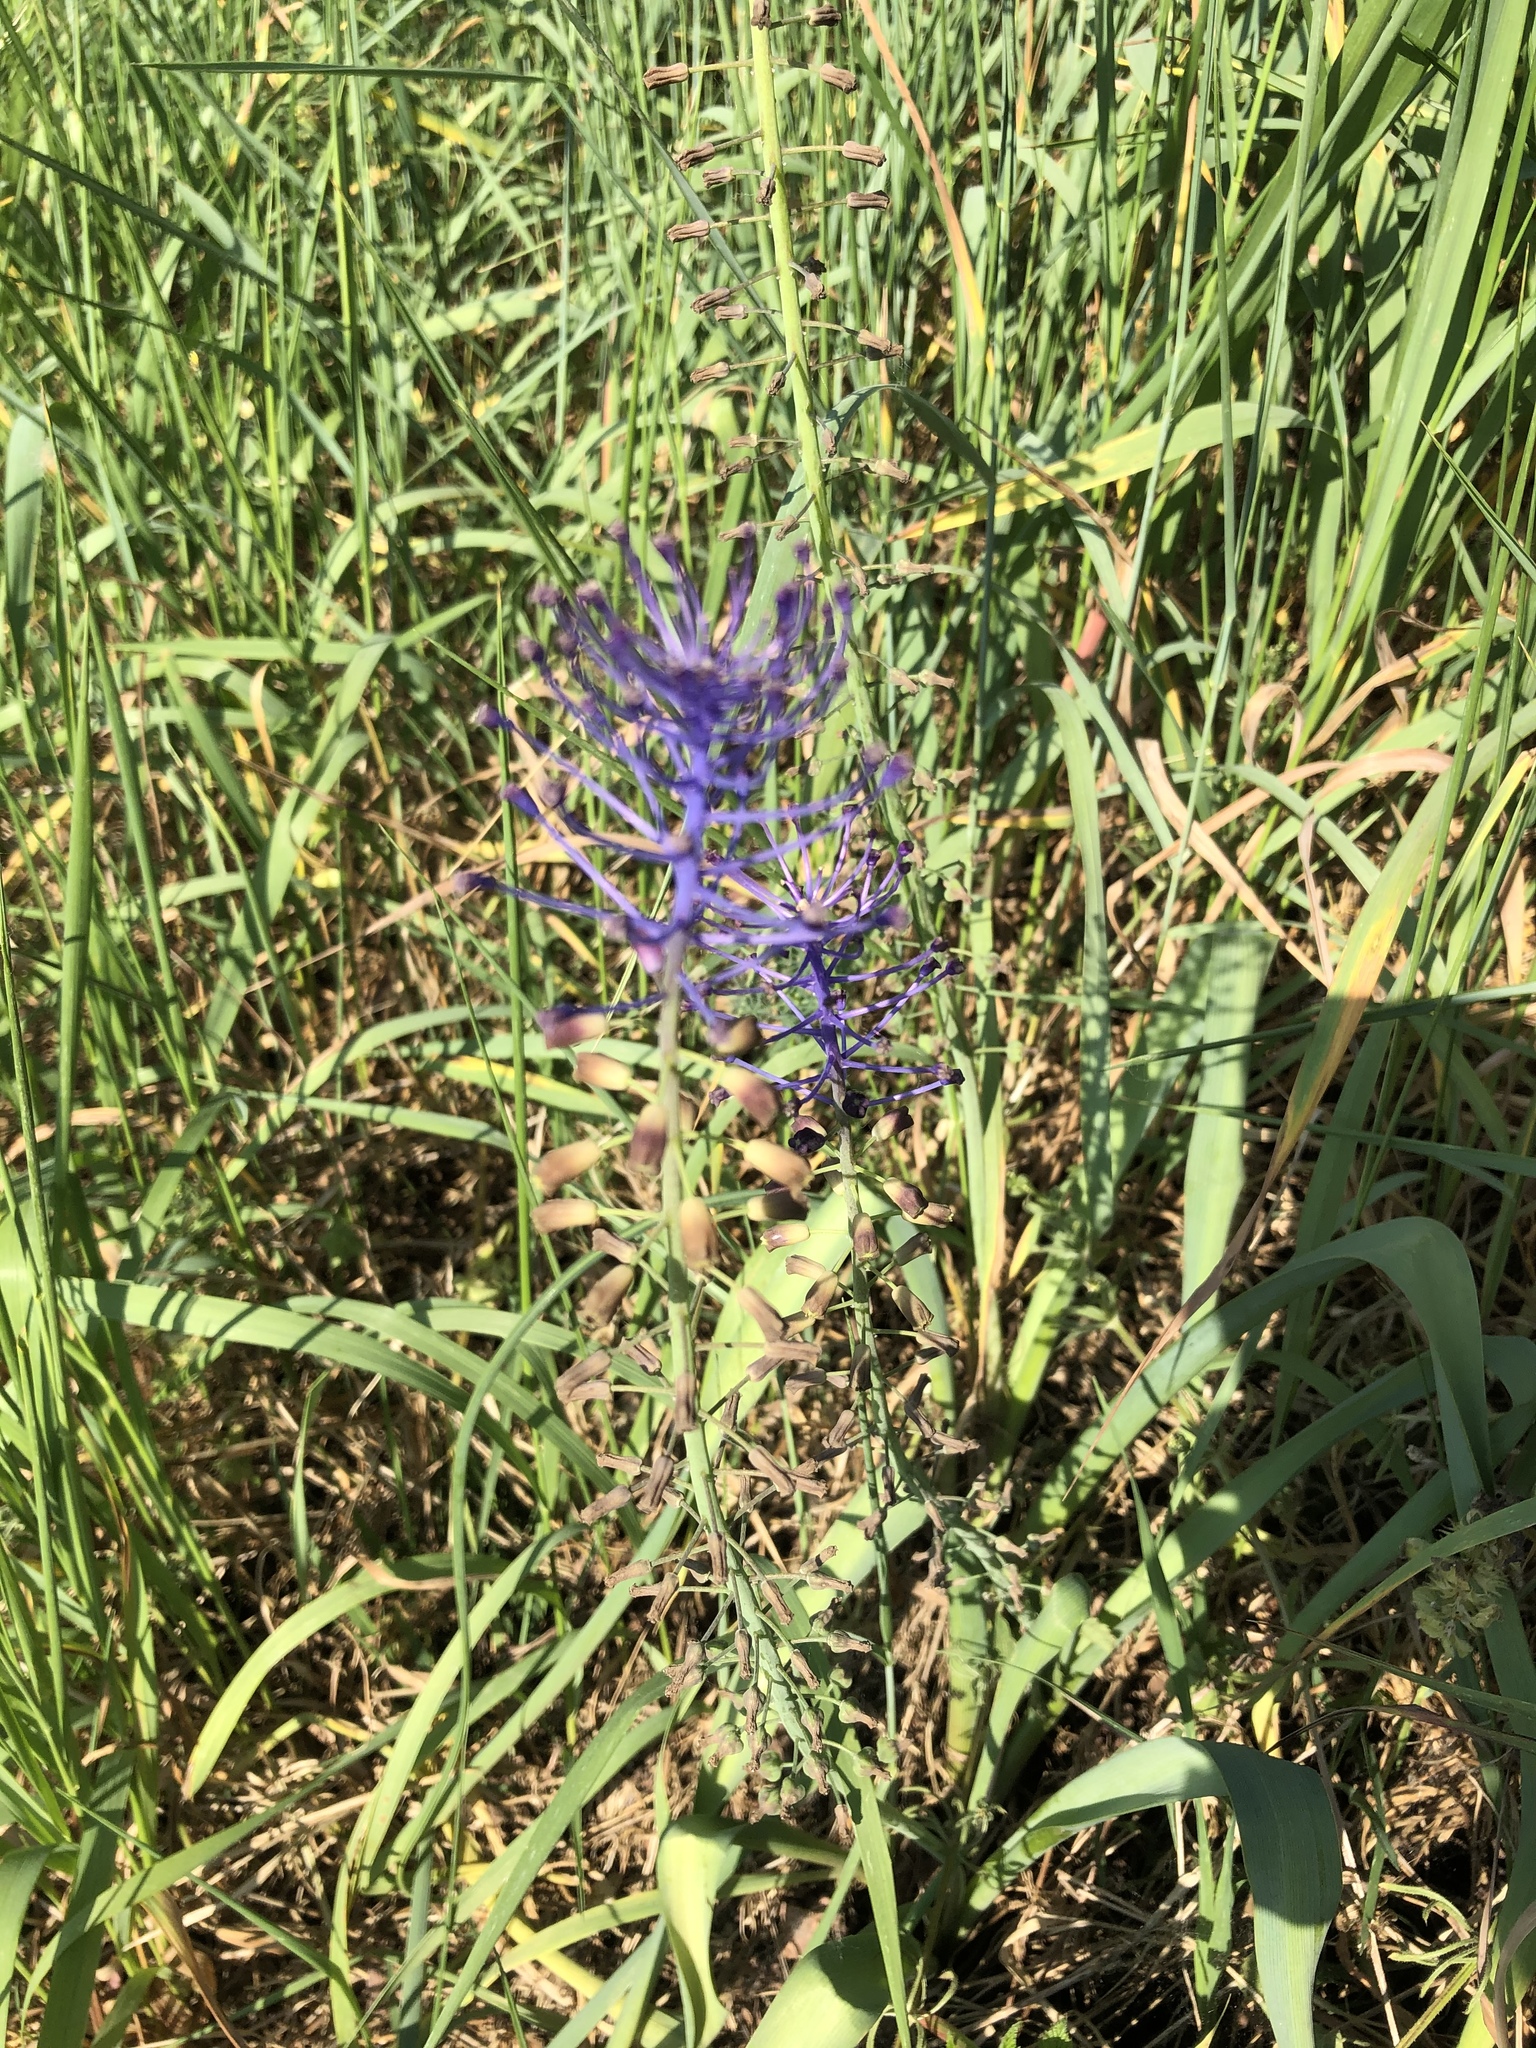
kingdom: Plantae
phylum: Tracheophyta
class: Liliopsida
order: Asparagales
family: Asparagaceae
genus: Muscari
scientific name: Muscari comosum
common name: Tassel hyacinth
